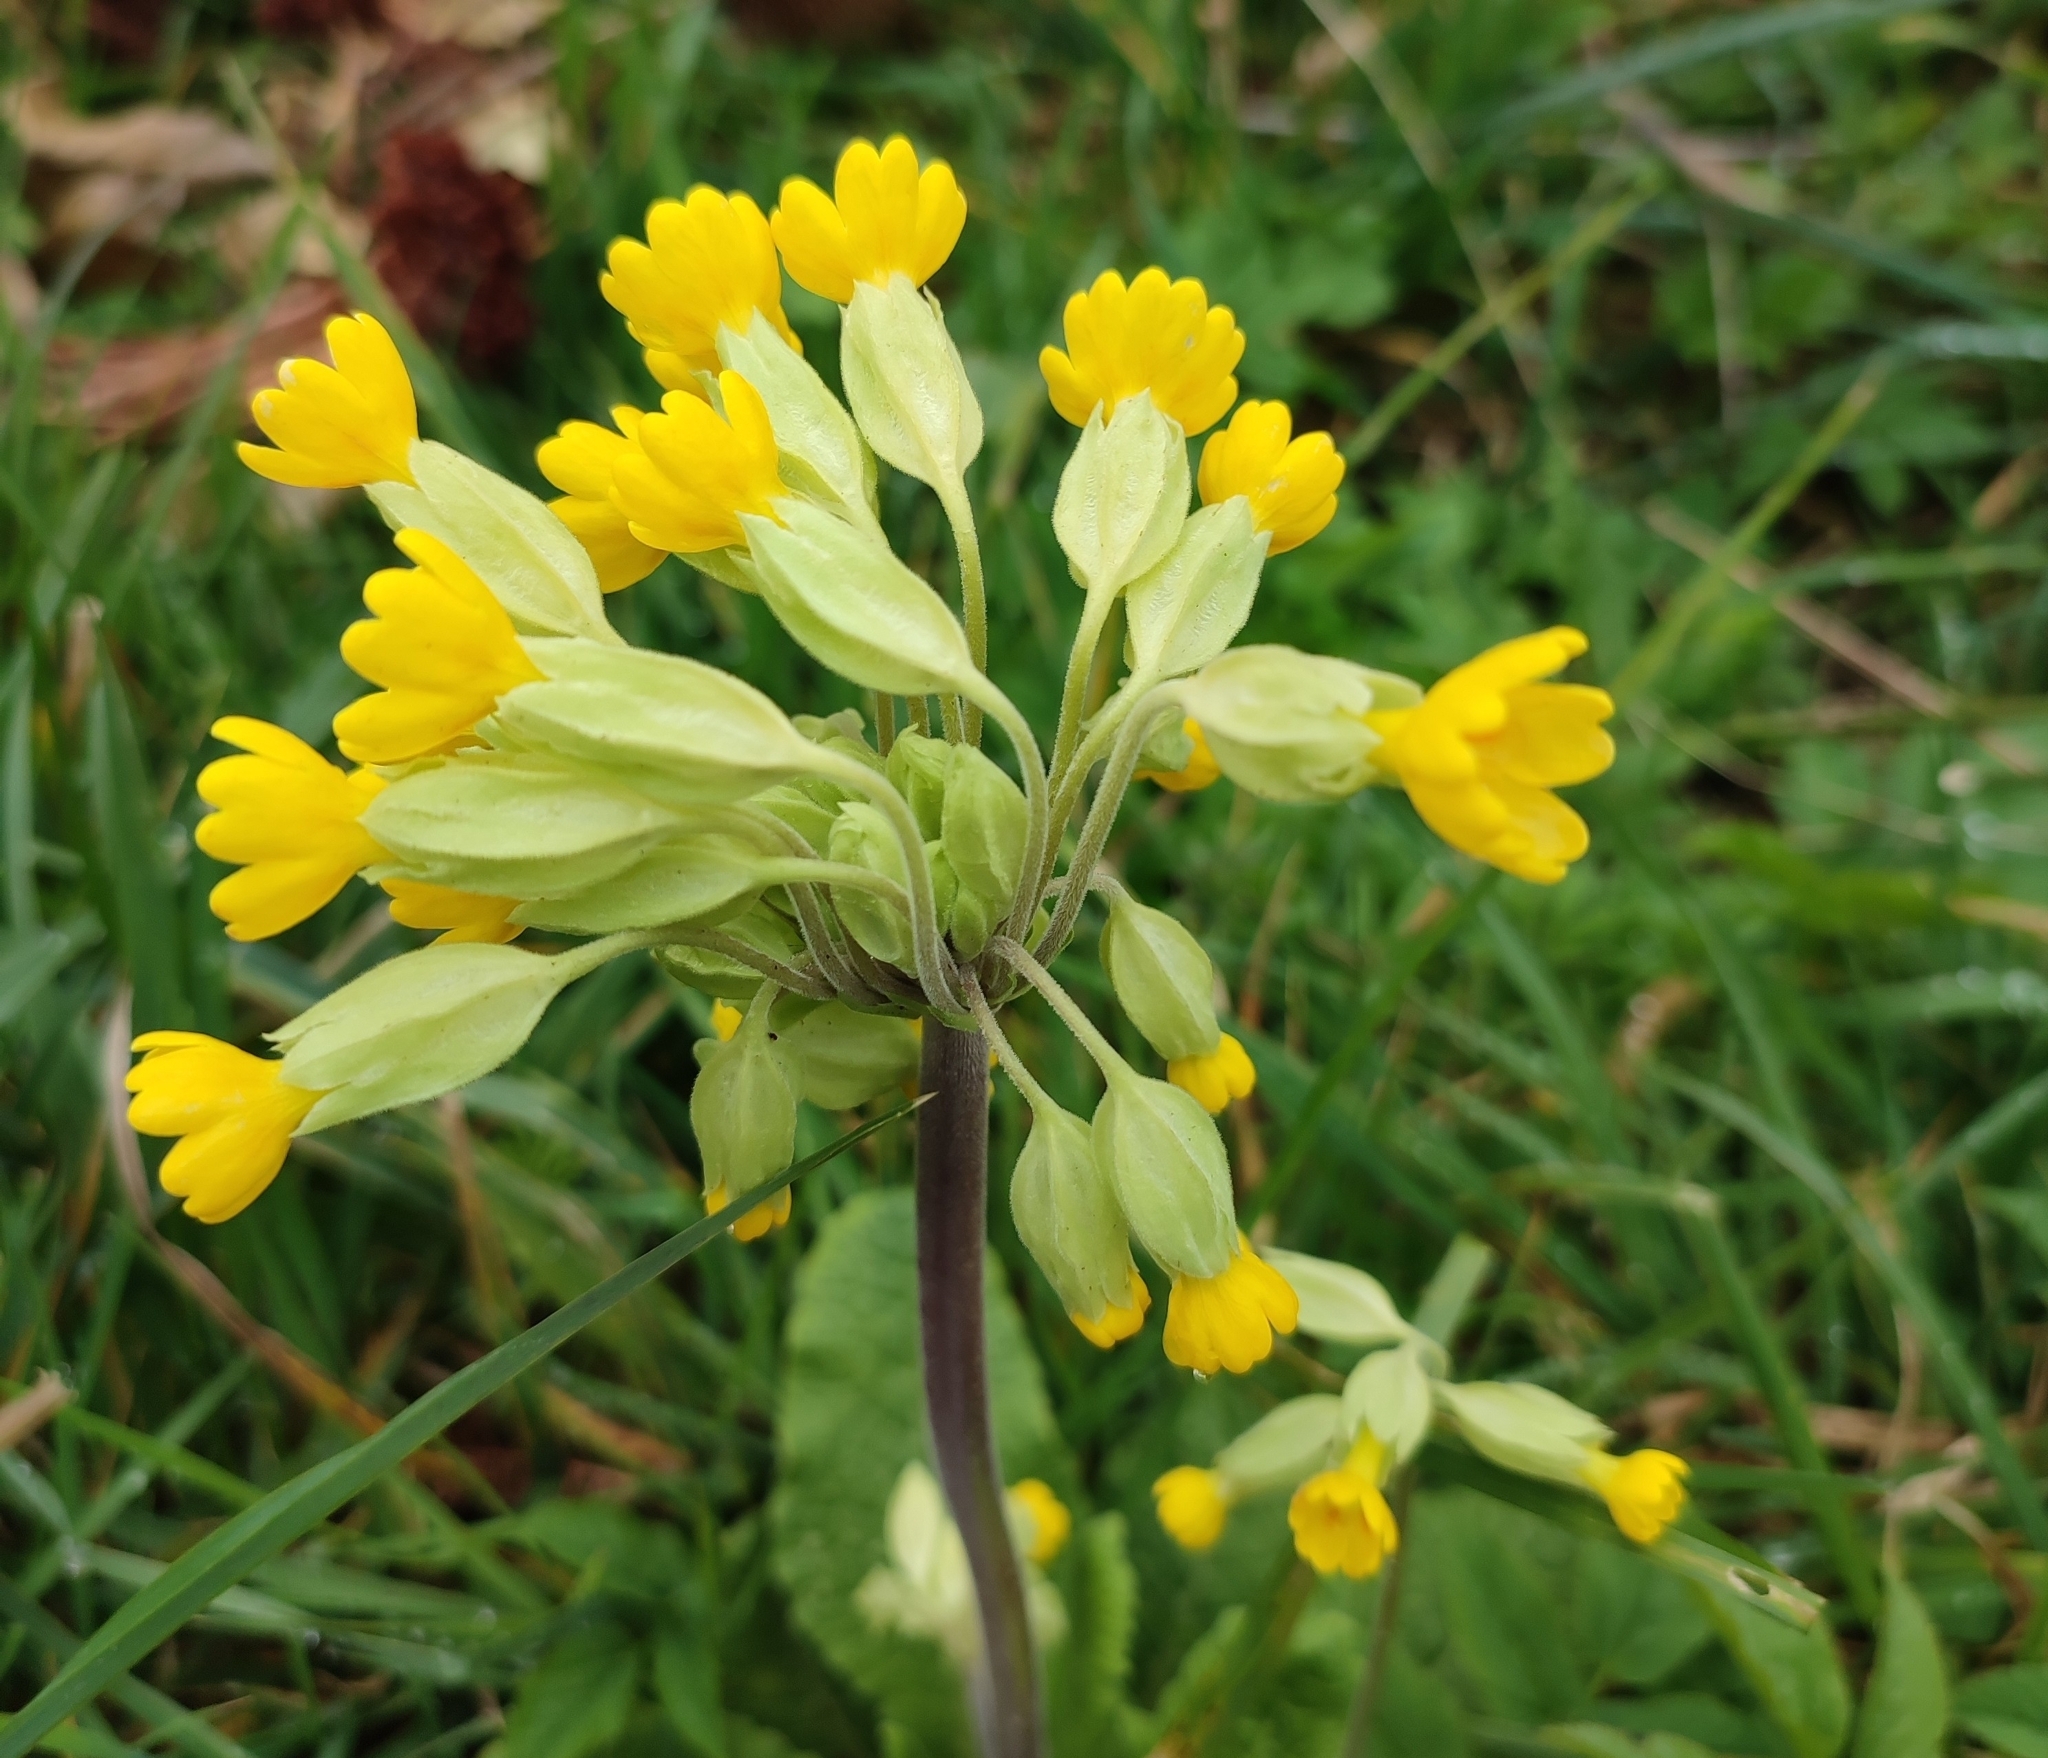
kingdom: Plantae
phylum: Tracheophyta
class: Magnoliopsida
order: Ericales
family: Primulaceae
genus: Primula
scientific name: Primula veris
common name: Cowslip
